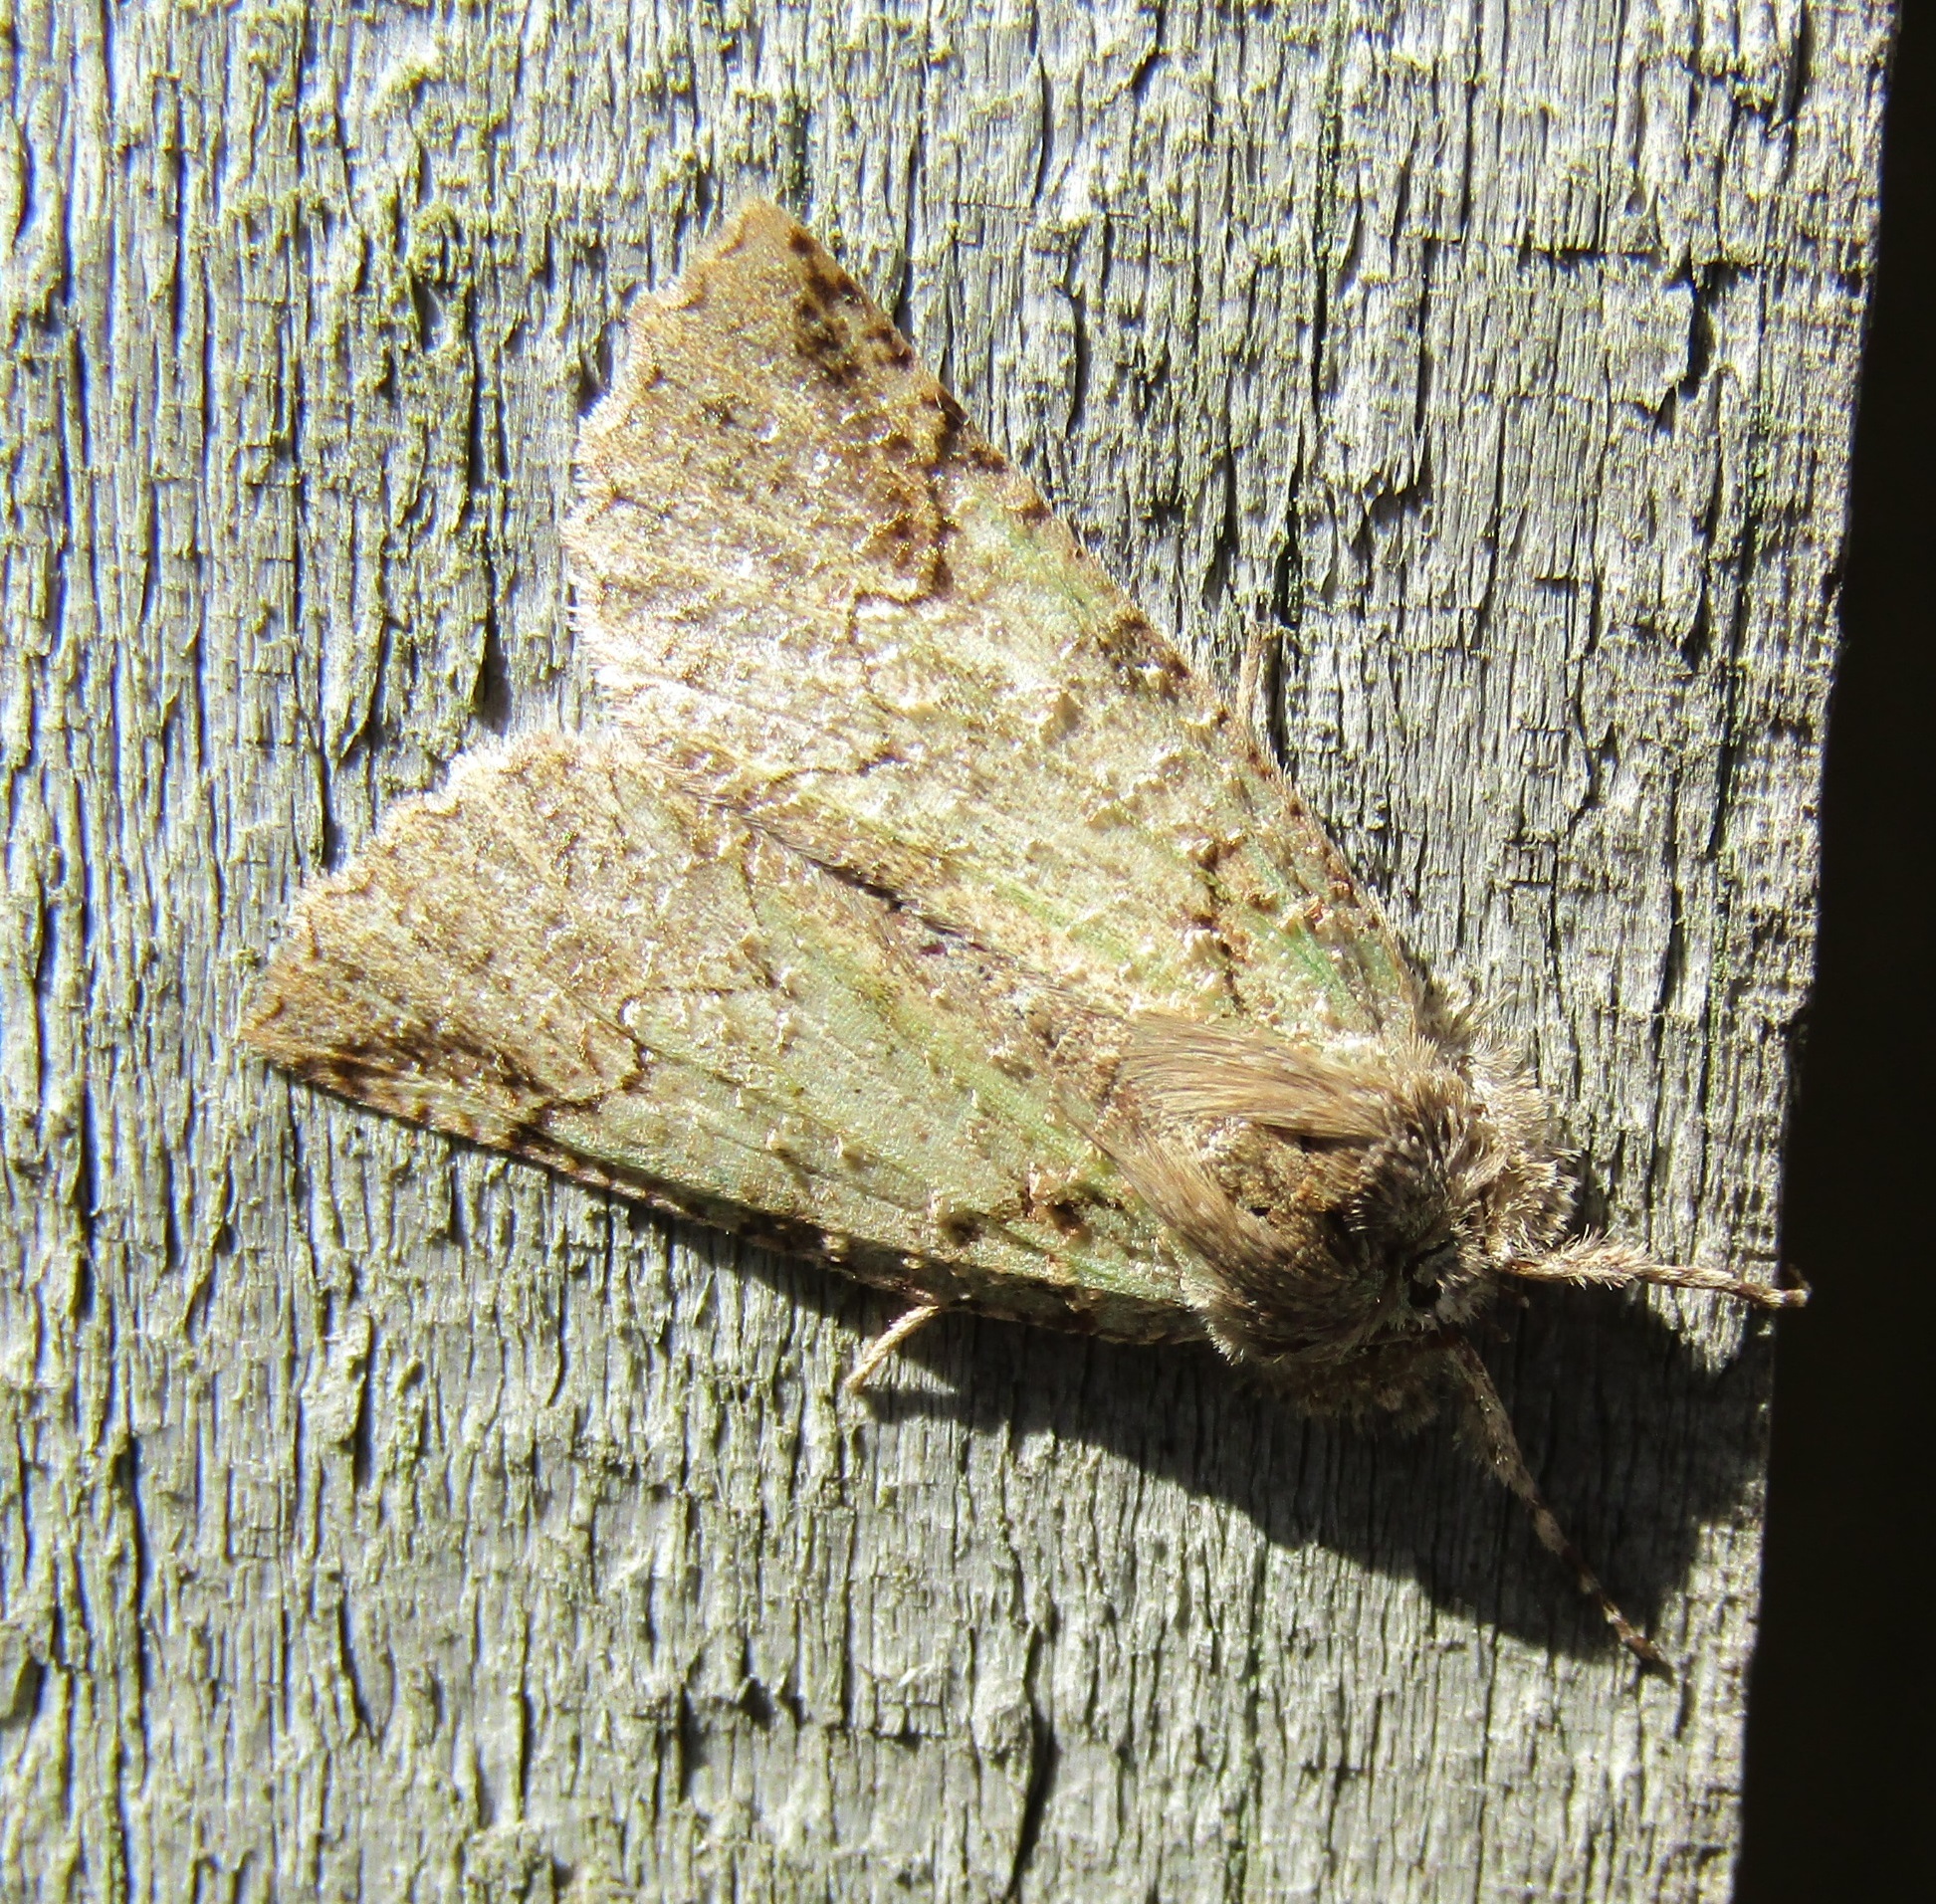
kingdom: Animalia
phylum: Arthropoda
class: Insecta
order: Lepidoptera
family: Geometridae
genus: Declana
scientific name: Declana floccosa
